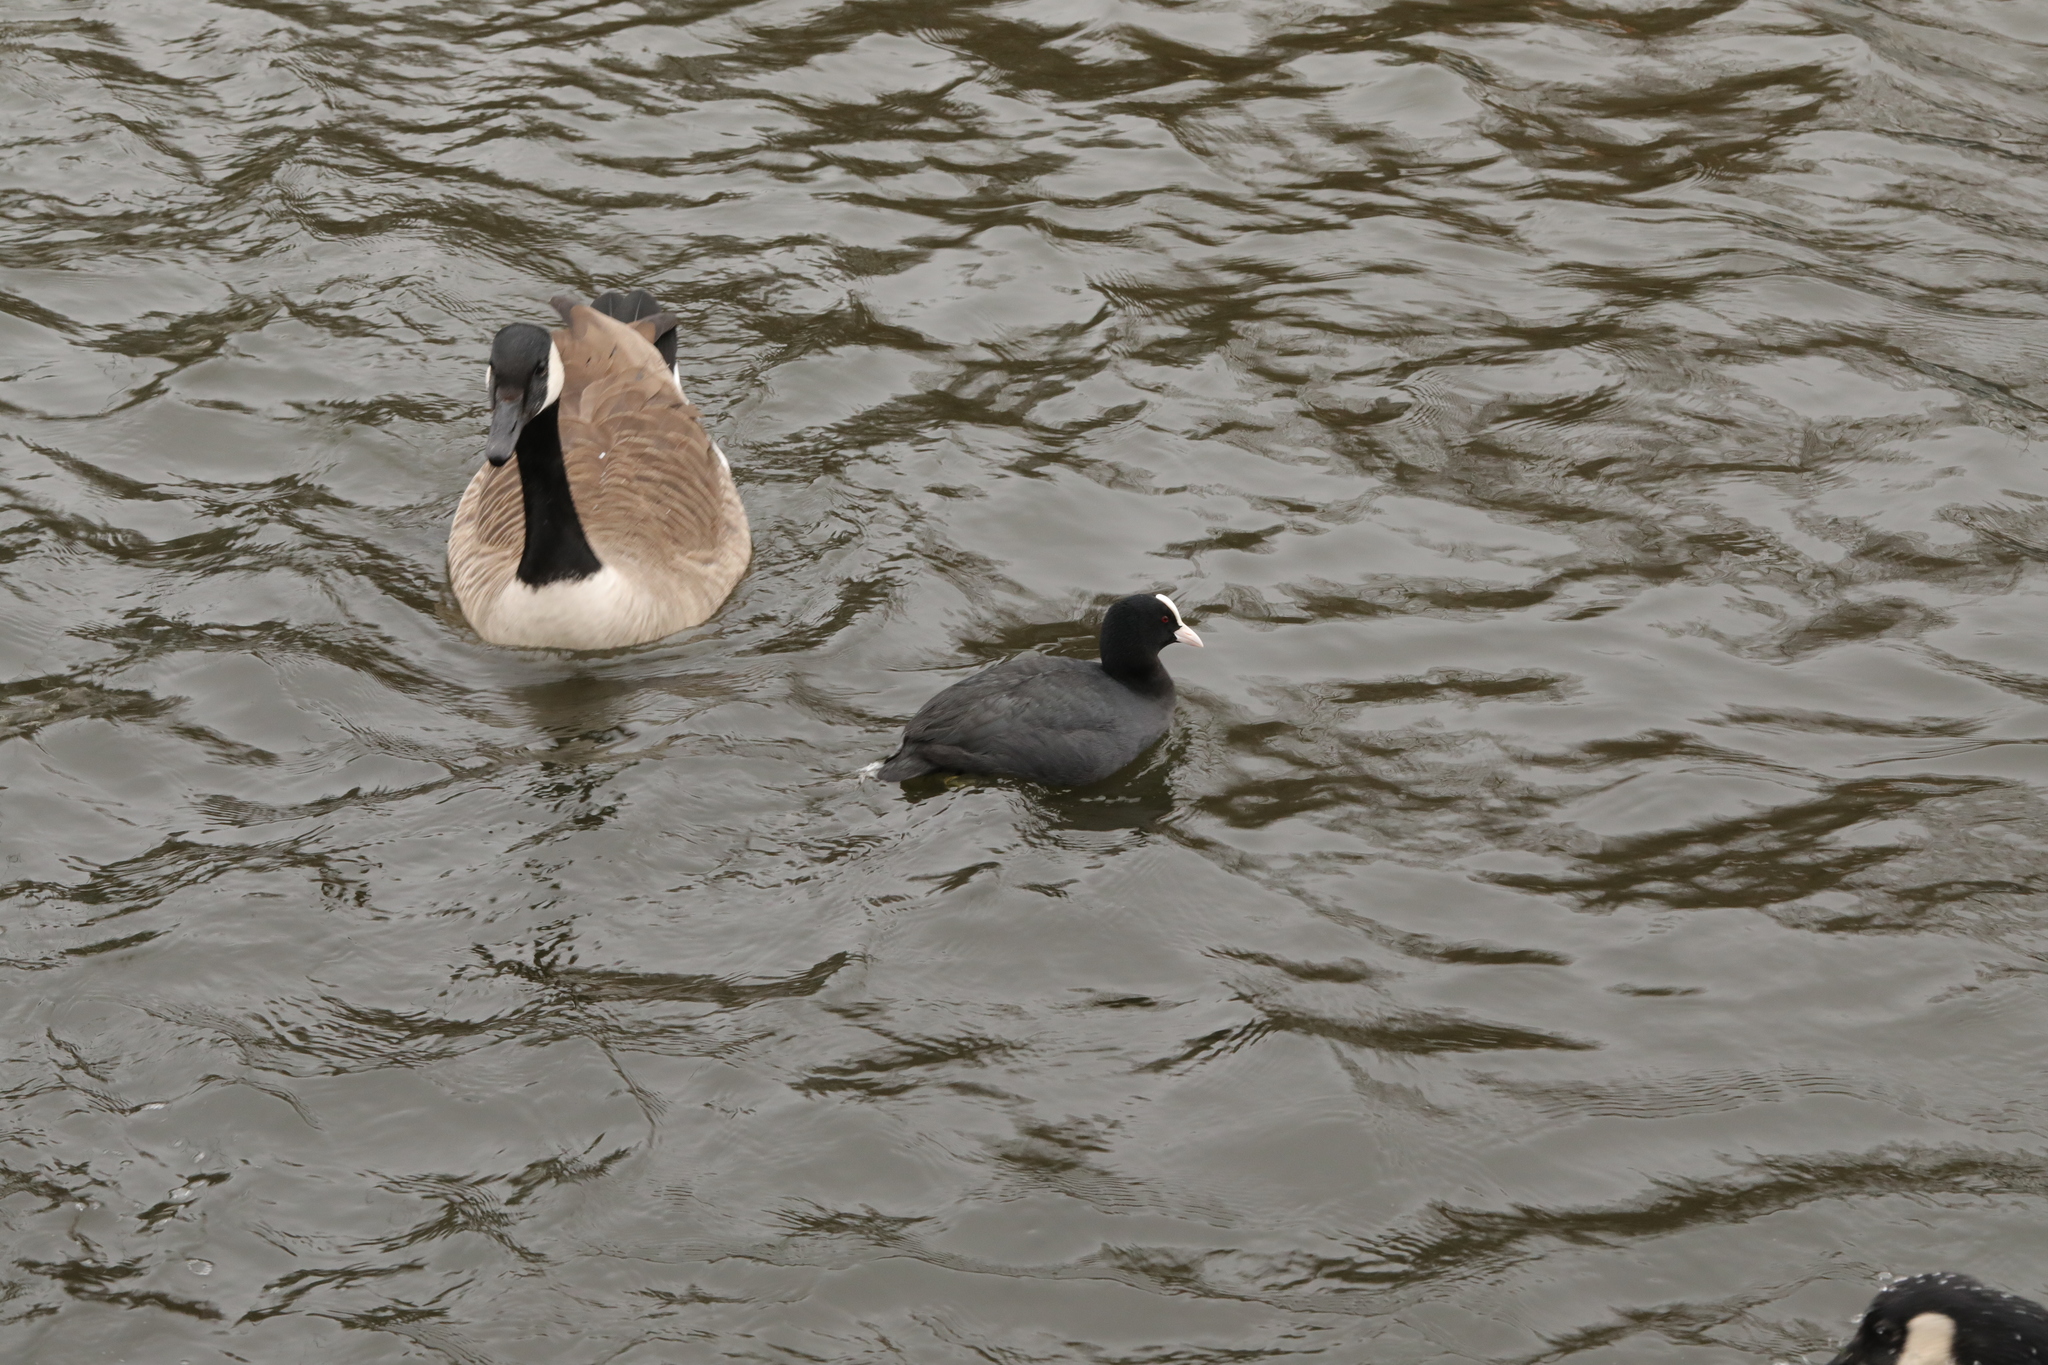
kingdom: Animalia
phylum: Chordata
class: Aves
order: Gruiformes
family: Rallidae
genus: Fulica
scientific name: Fulica atra
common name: Eurasian coot
